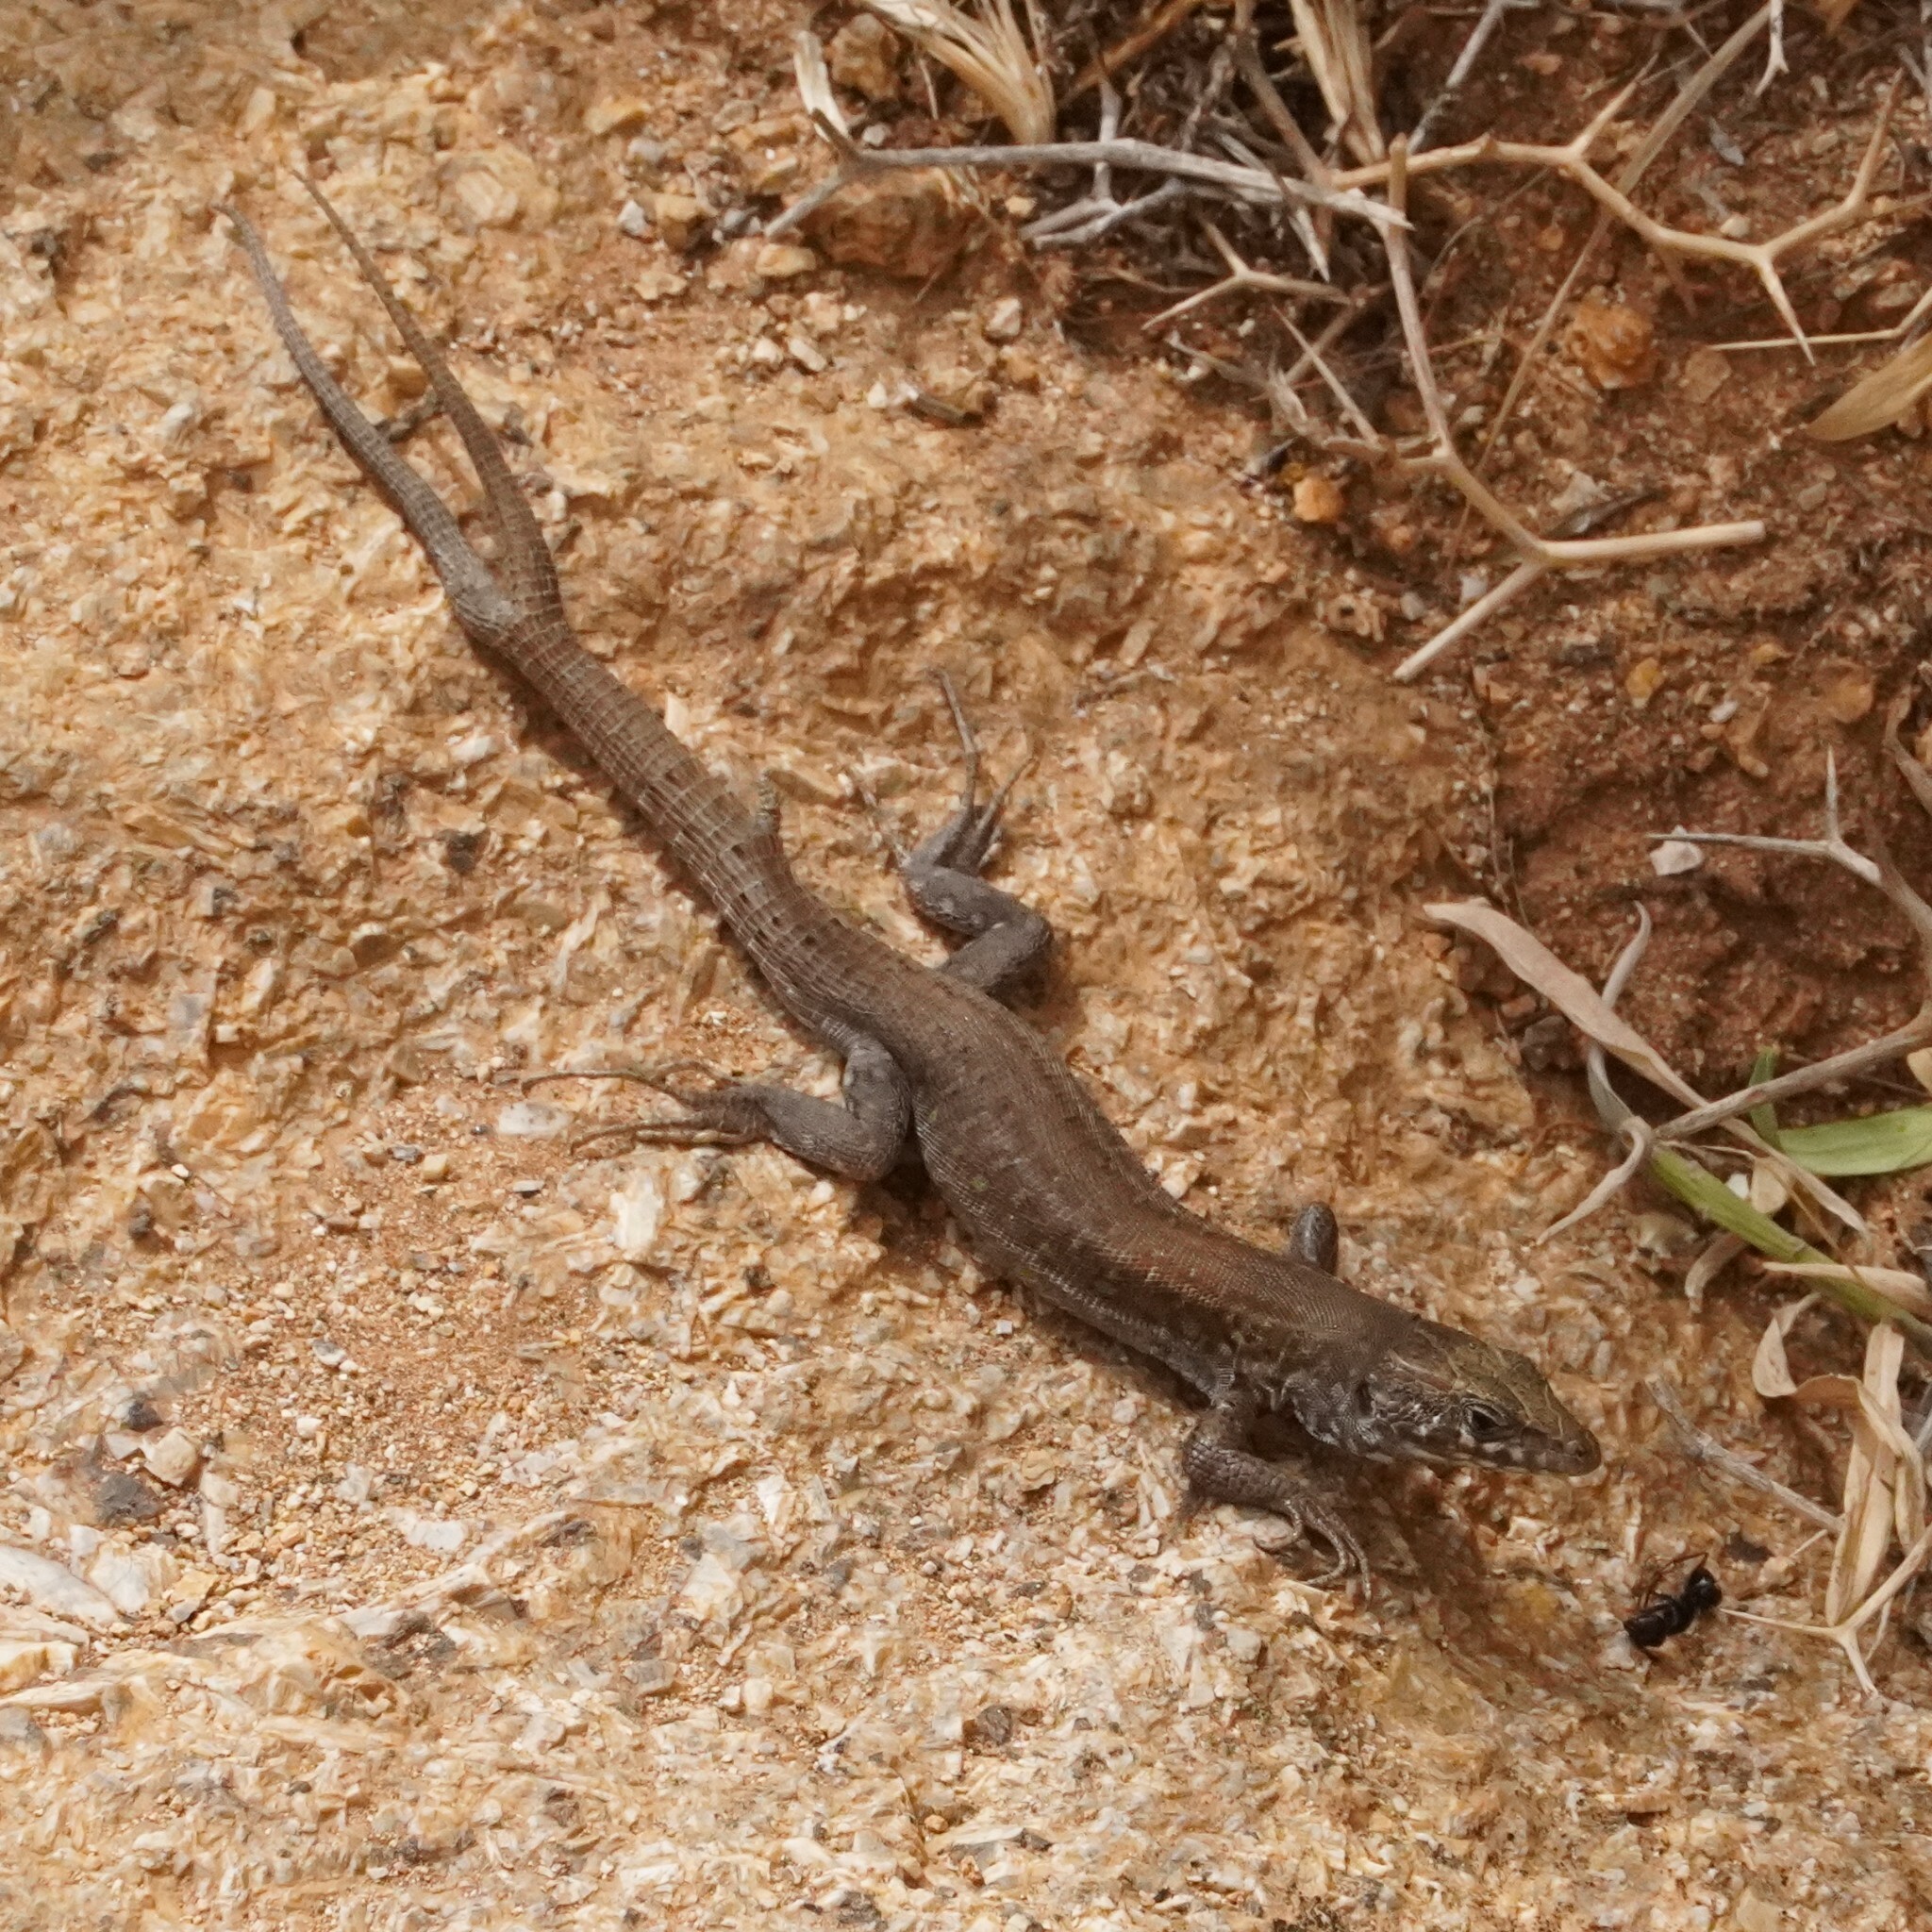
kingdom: Animalia
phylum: Chordata
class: Squamata
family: Lacertidae
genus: Gallotia
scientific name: Gallotia atlantica
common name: Atlantic lizard
